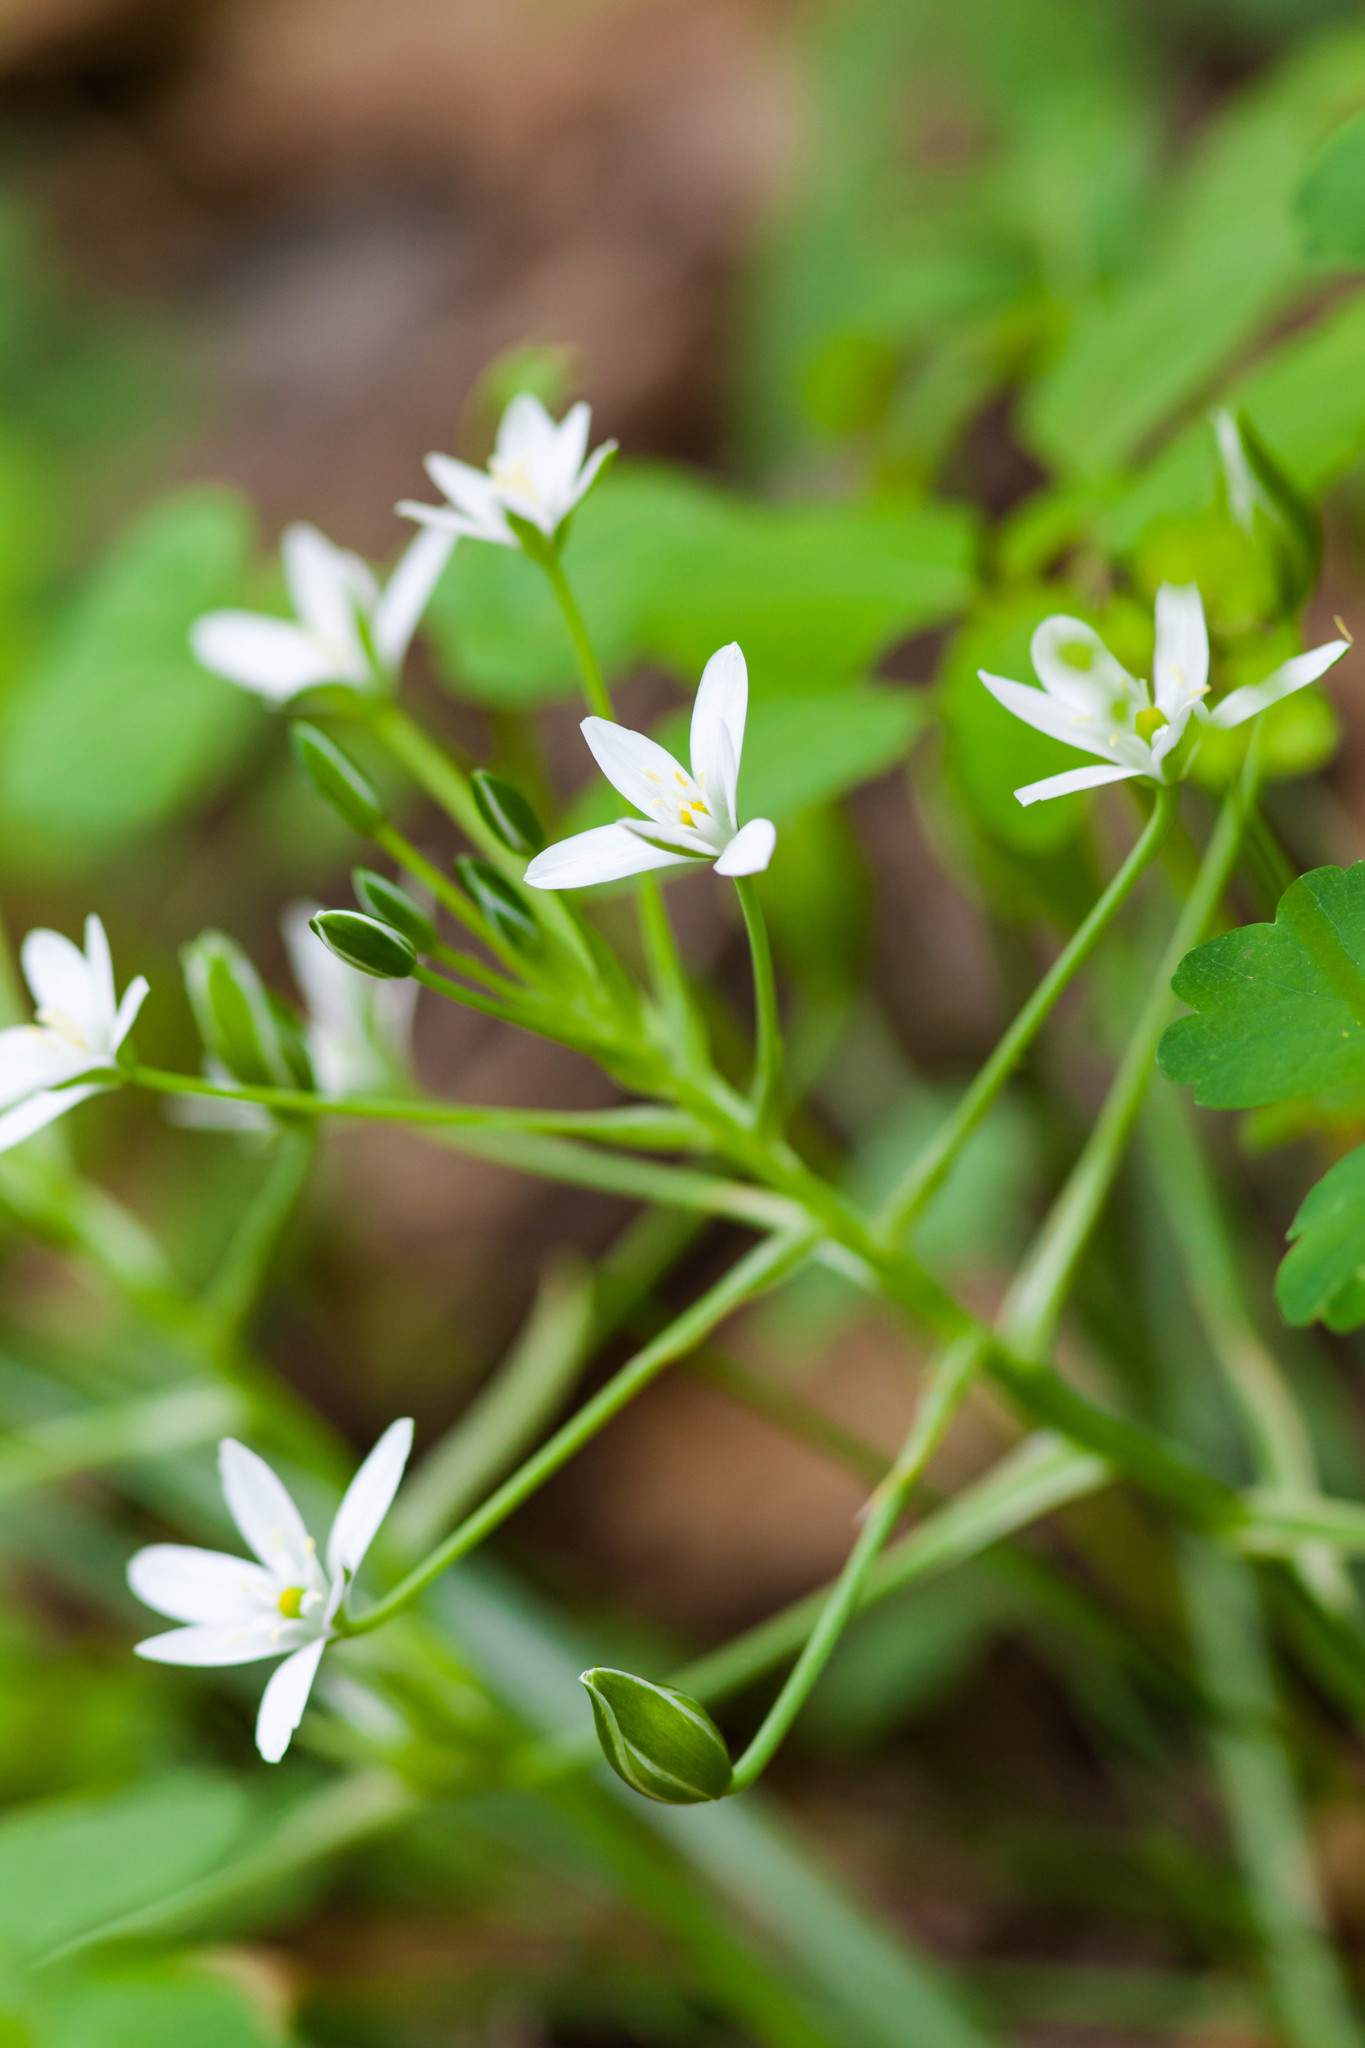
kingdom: Plantae
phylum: Tracheophyta
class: Liliopsida
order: Asparagales
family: Asparagaceae
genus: Ornithogalum
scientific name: Ornithogalum umbellatum
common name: Garden star-of-bethlehem
